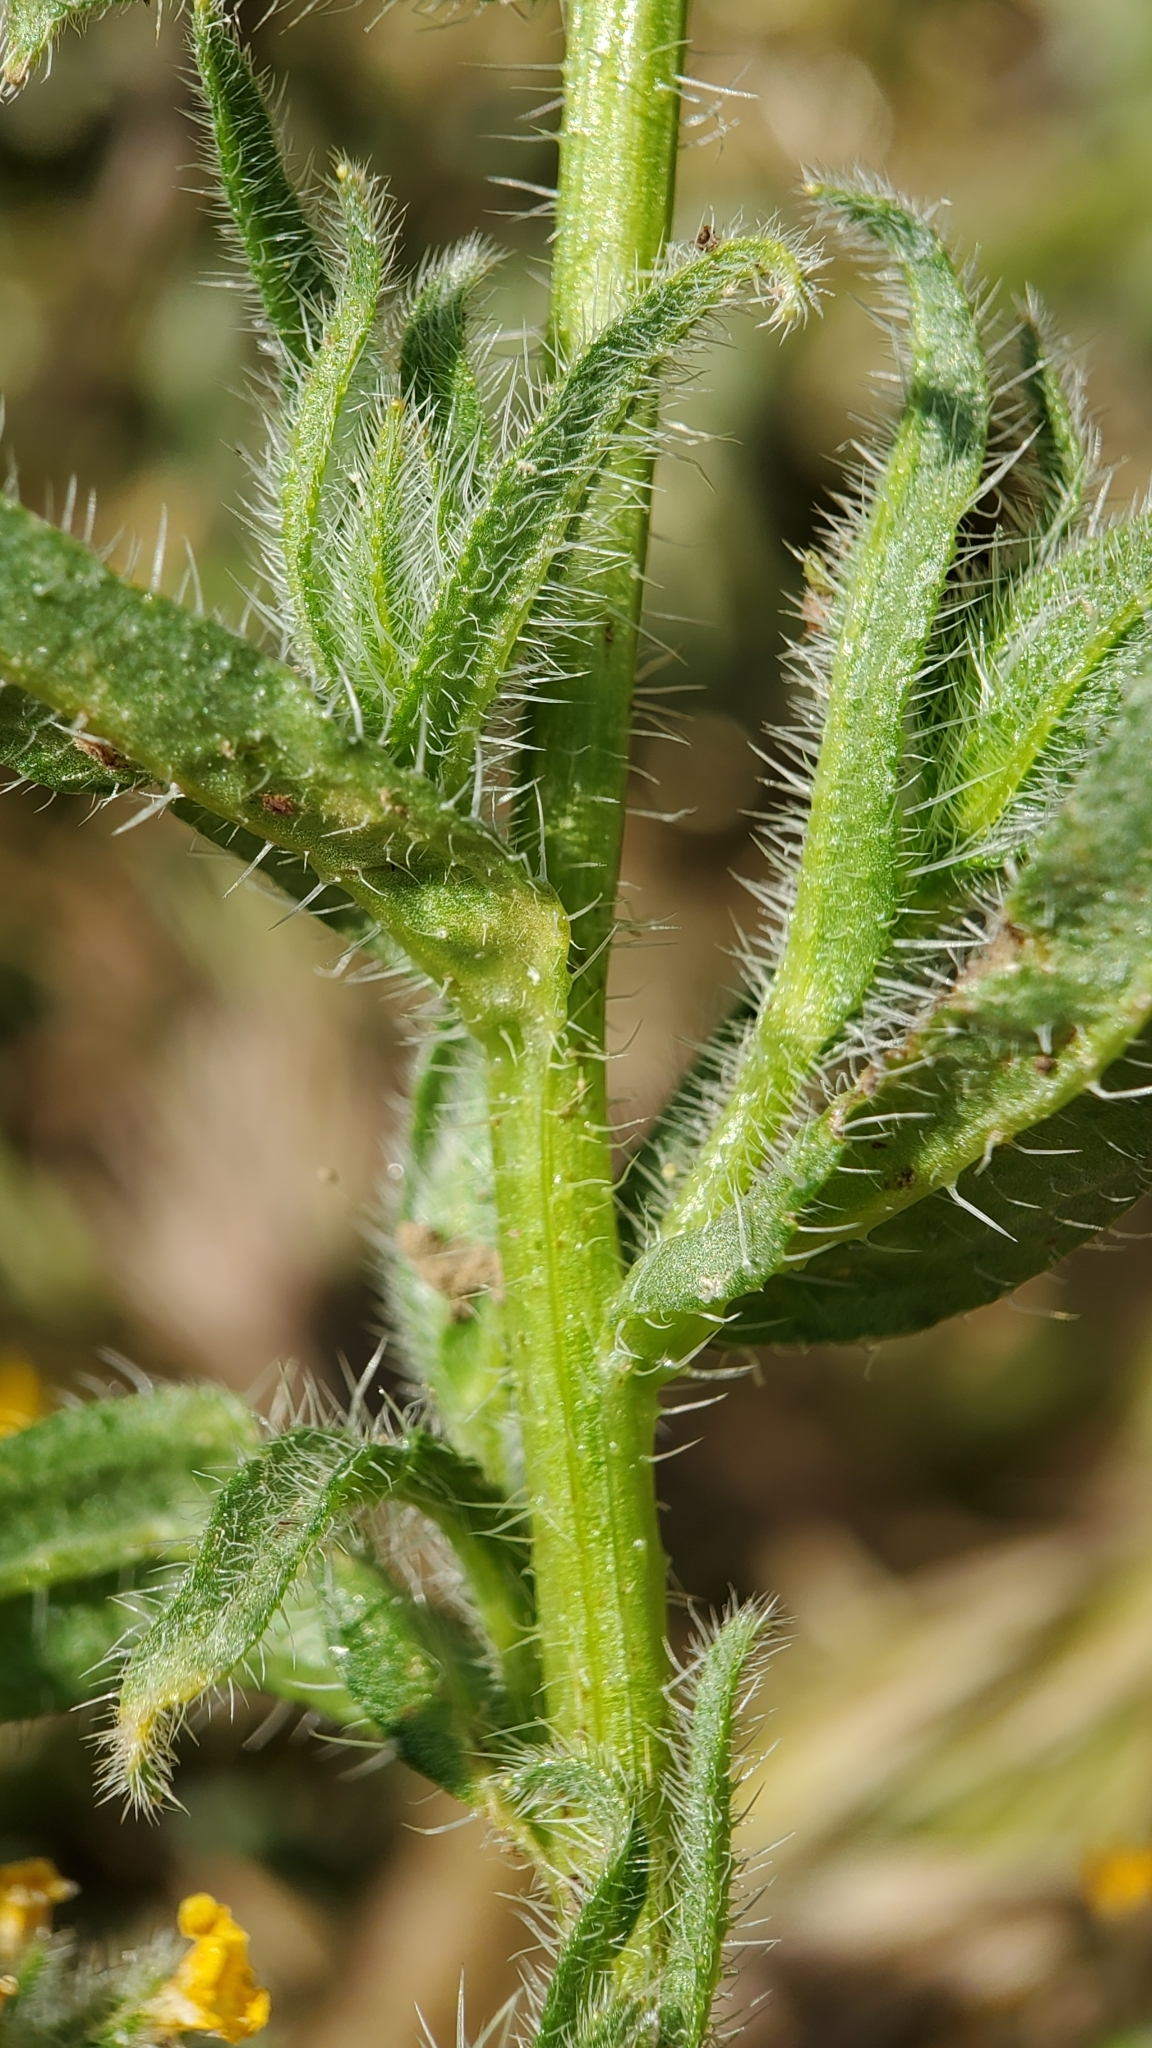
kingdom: Plantae
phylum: Tracheophyta
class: Magnoliopsida
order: Boraginales
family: Boraginaceae
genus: Amsinckia
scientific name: Amsinckia menziesii
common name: Menzies' fiddleneck
